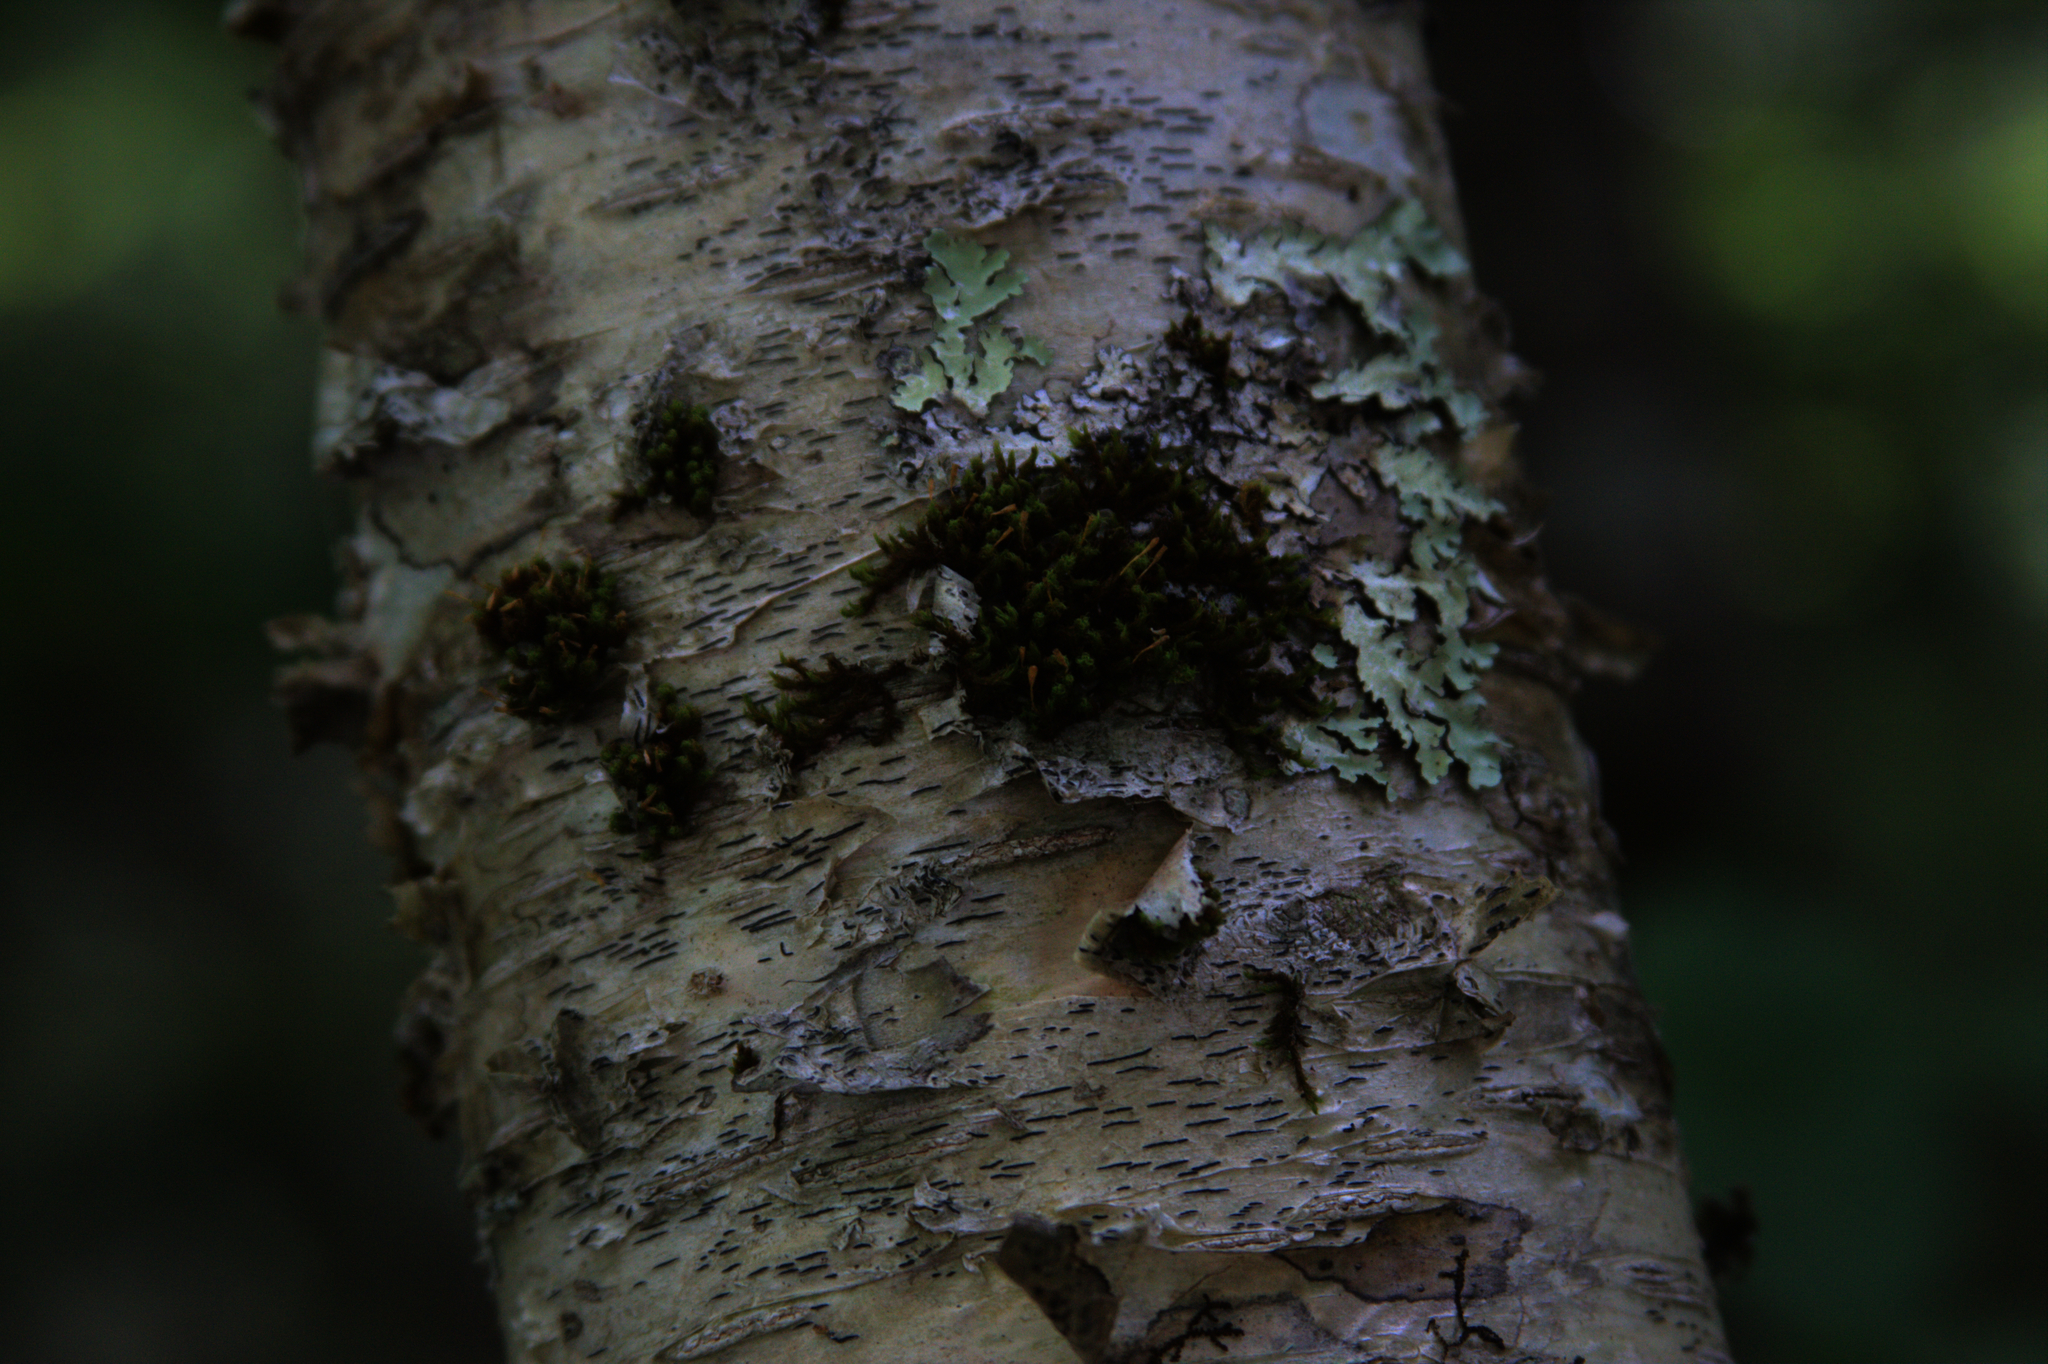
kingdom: Plantae
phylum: Bryophyta
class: Bryopsida
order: Orthotrichales
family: Orthotrichaceae
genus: Ulota
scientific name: Ulota crispa
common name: Crisped pincushion moss
